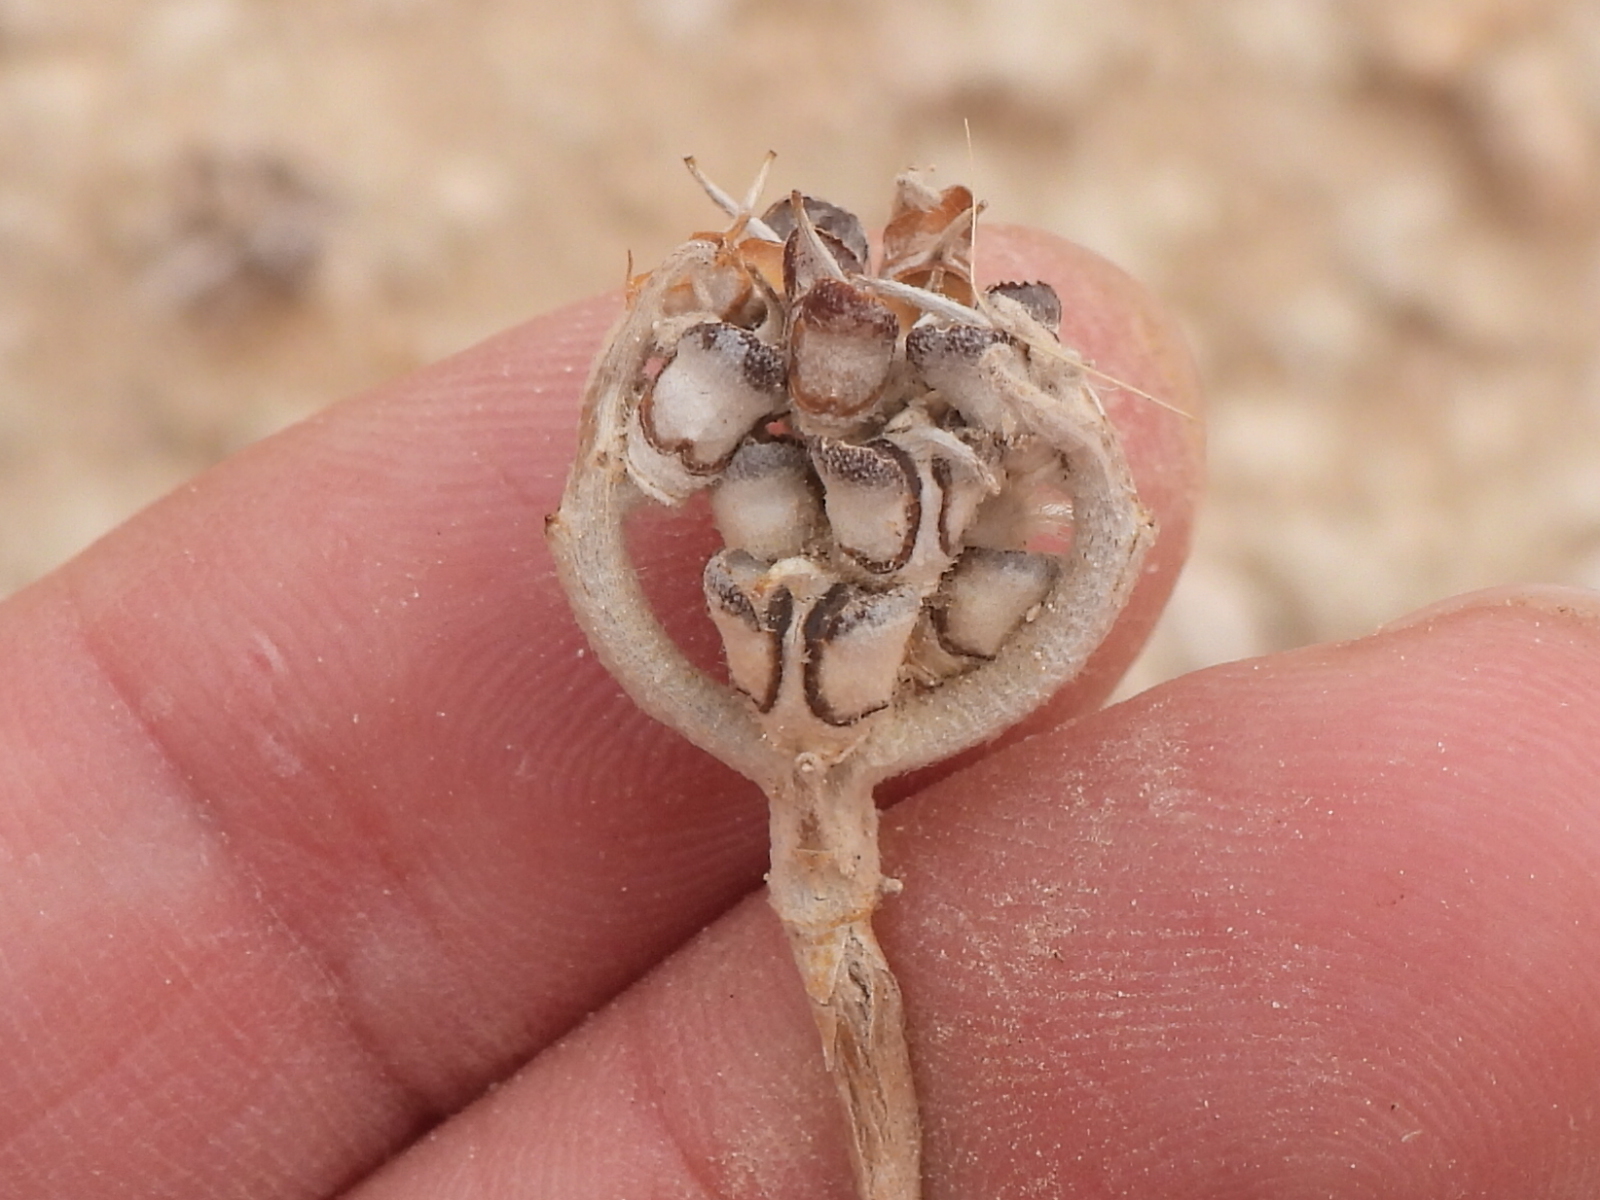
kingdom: Plantae
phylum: Tracheophyta
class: Magnoliopsida
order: Brassicales
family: Brassicaceae
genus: Anastatica
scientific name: Anastatica hierochuntica
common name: Rose-of-jericho
